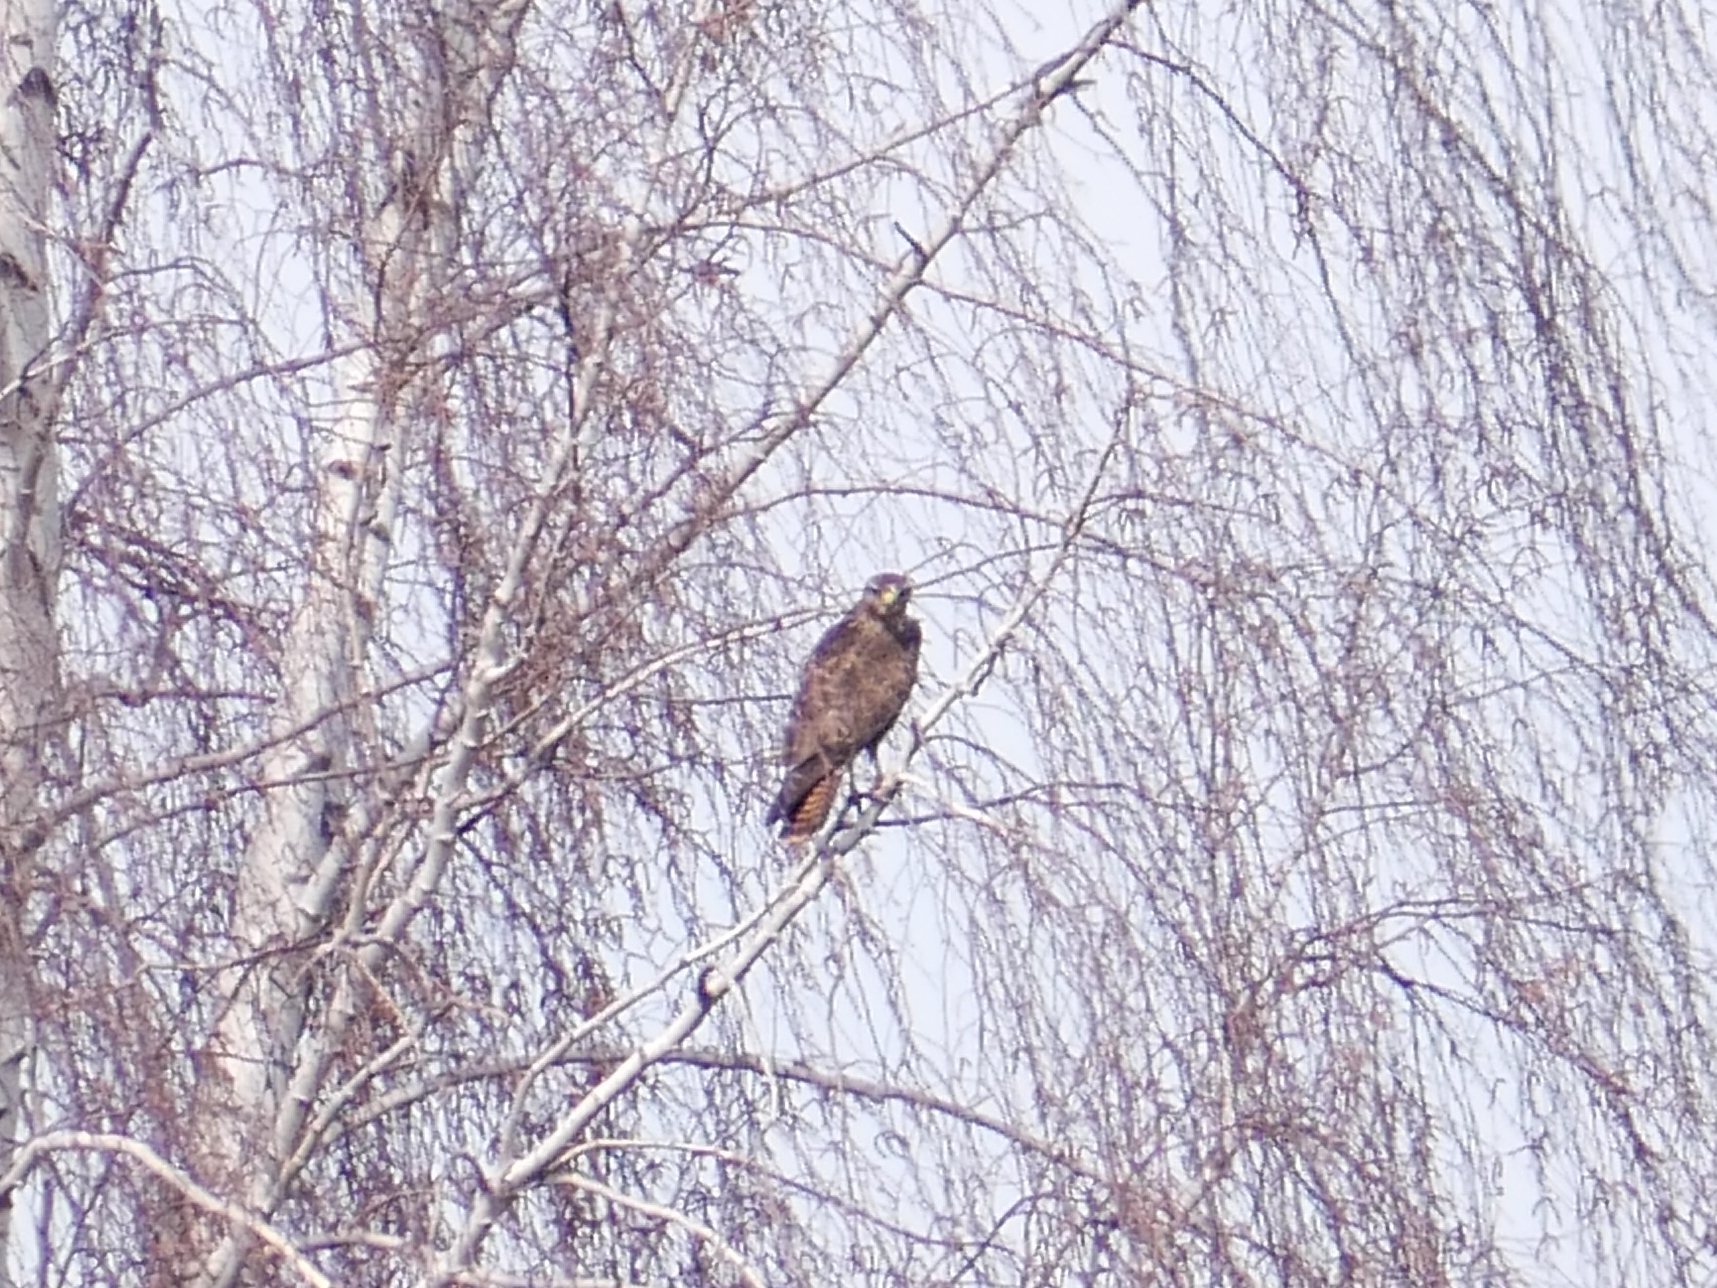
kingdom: Animalia
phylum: Chordata
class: Aves
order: Accipitriformes
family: Accipitridae
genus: Buteo
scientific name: Buteo buteo
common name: Common buzzard
